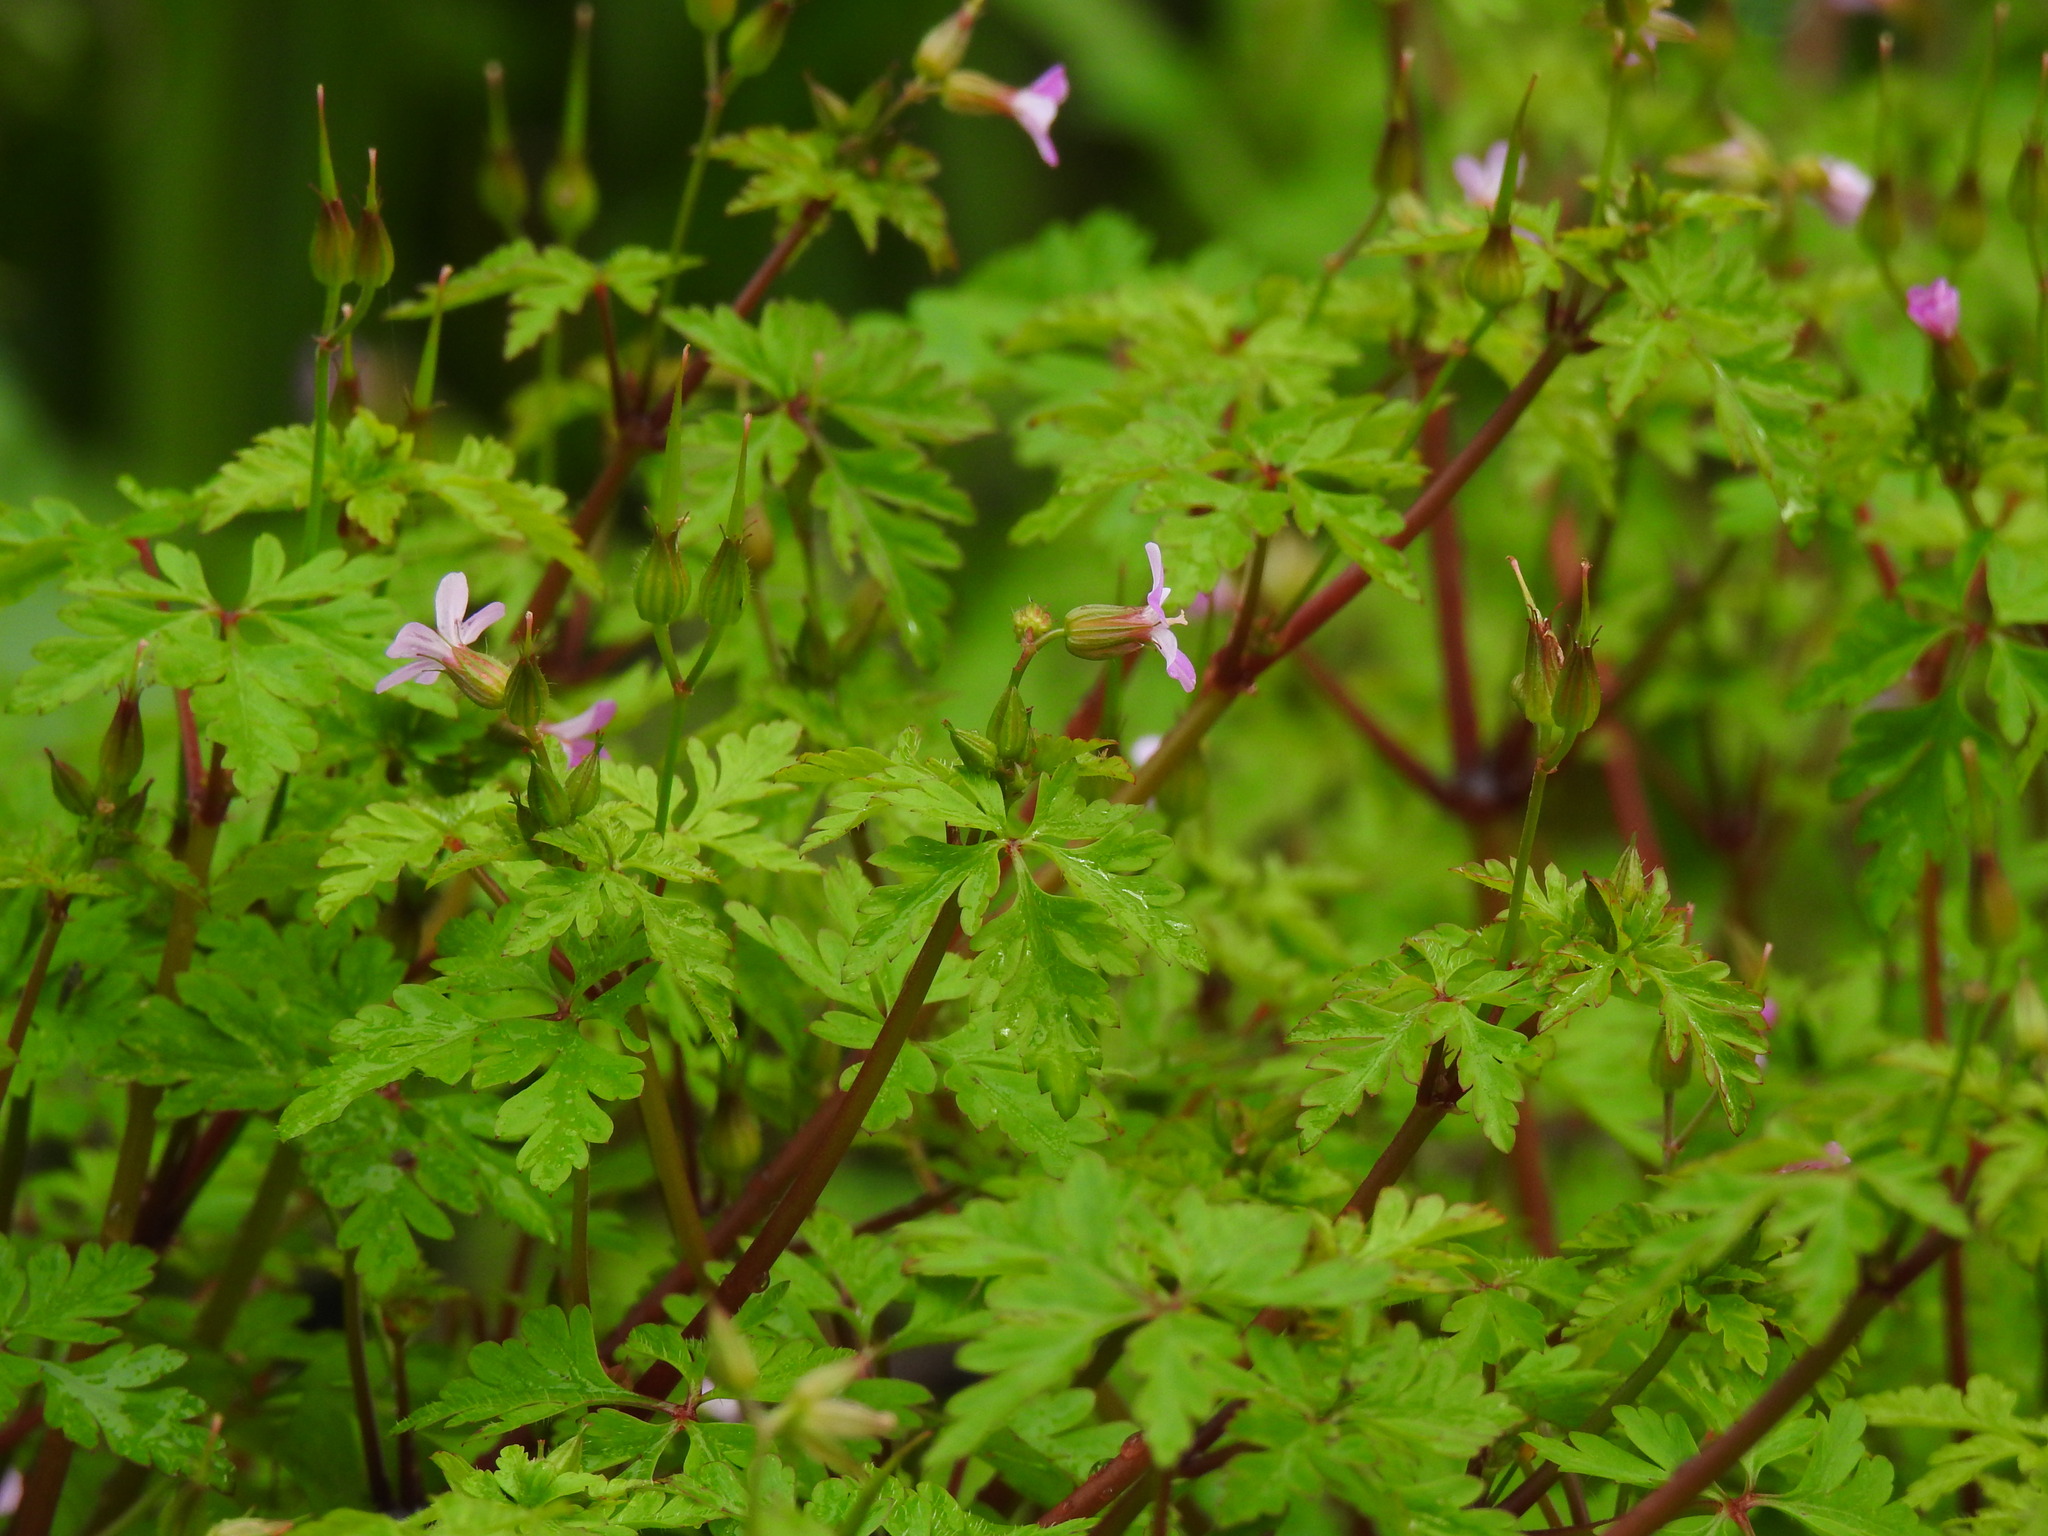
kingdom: Plantae
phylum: Tracheophyta
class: Magnoliopsida
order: Geraniales
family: Geraniaceae
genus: Geranium
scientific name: Geranium purpureum
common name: Little-robin
